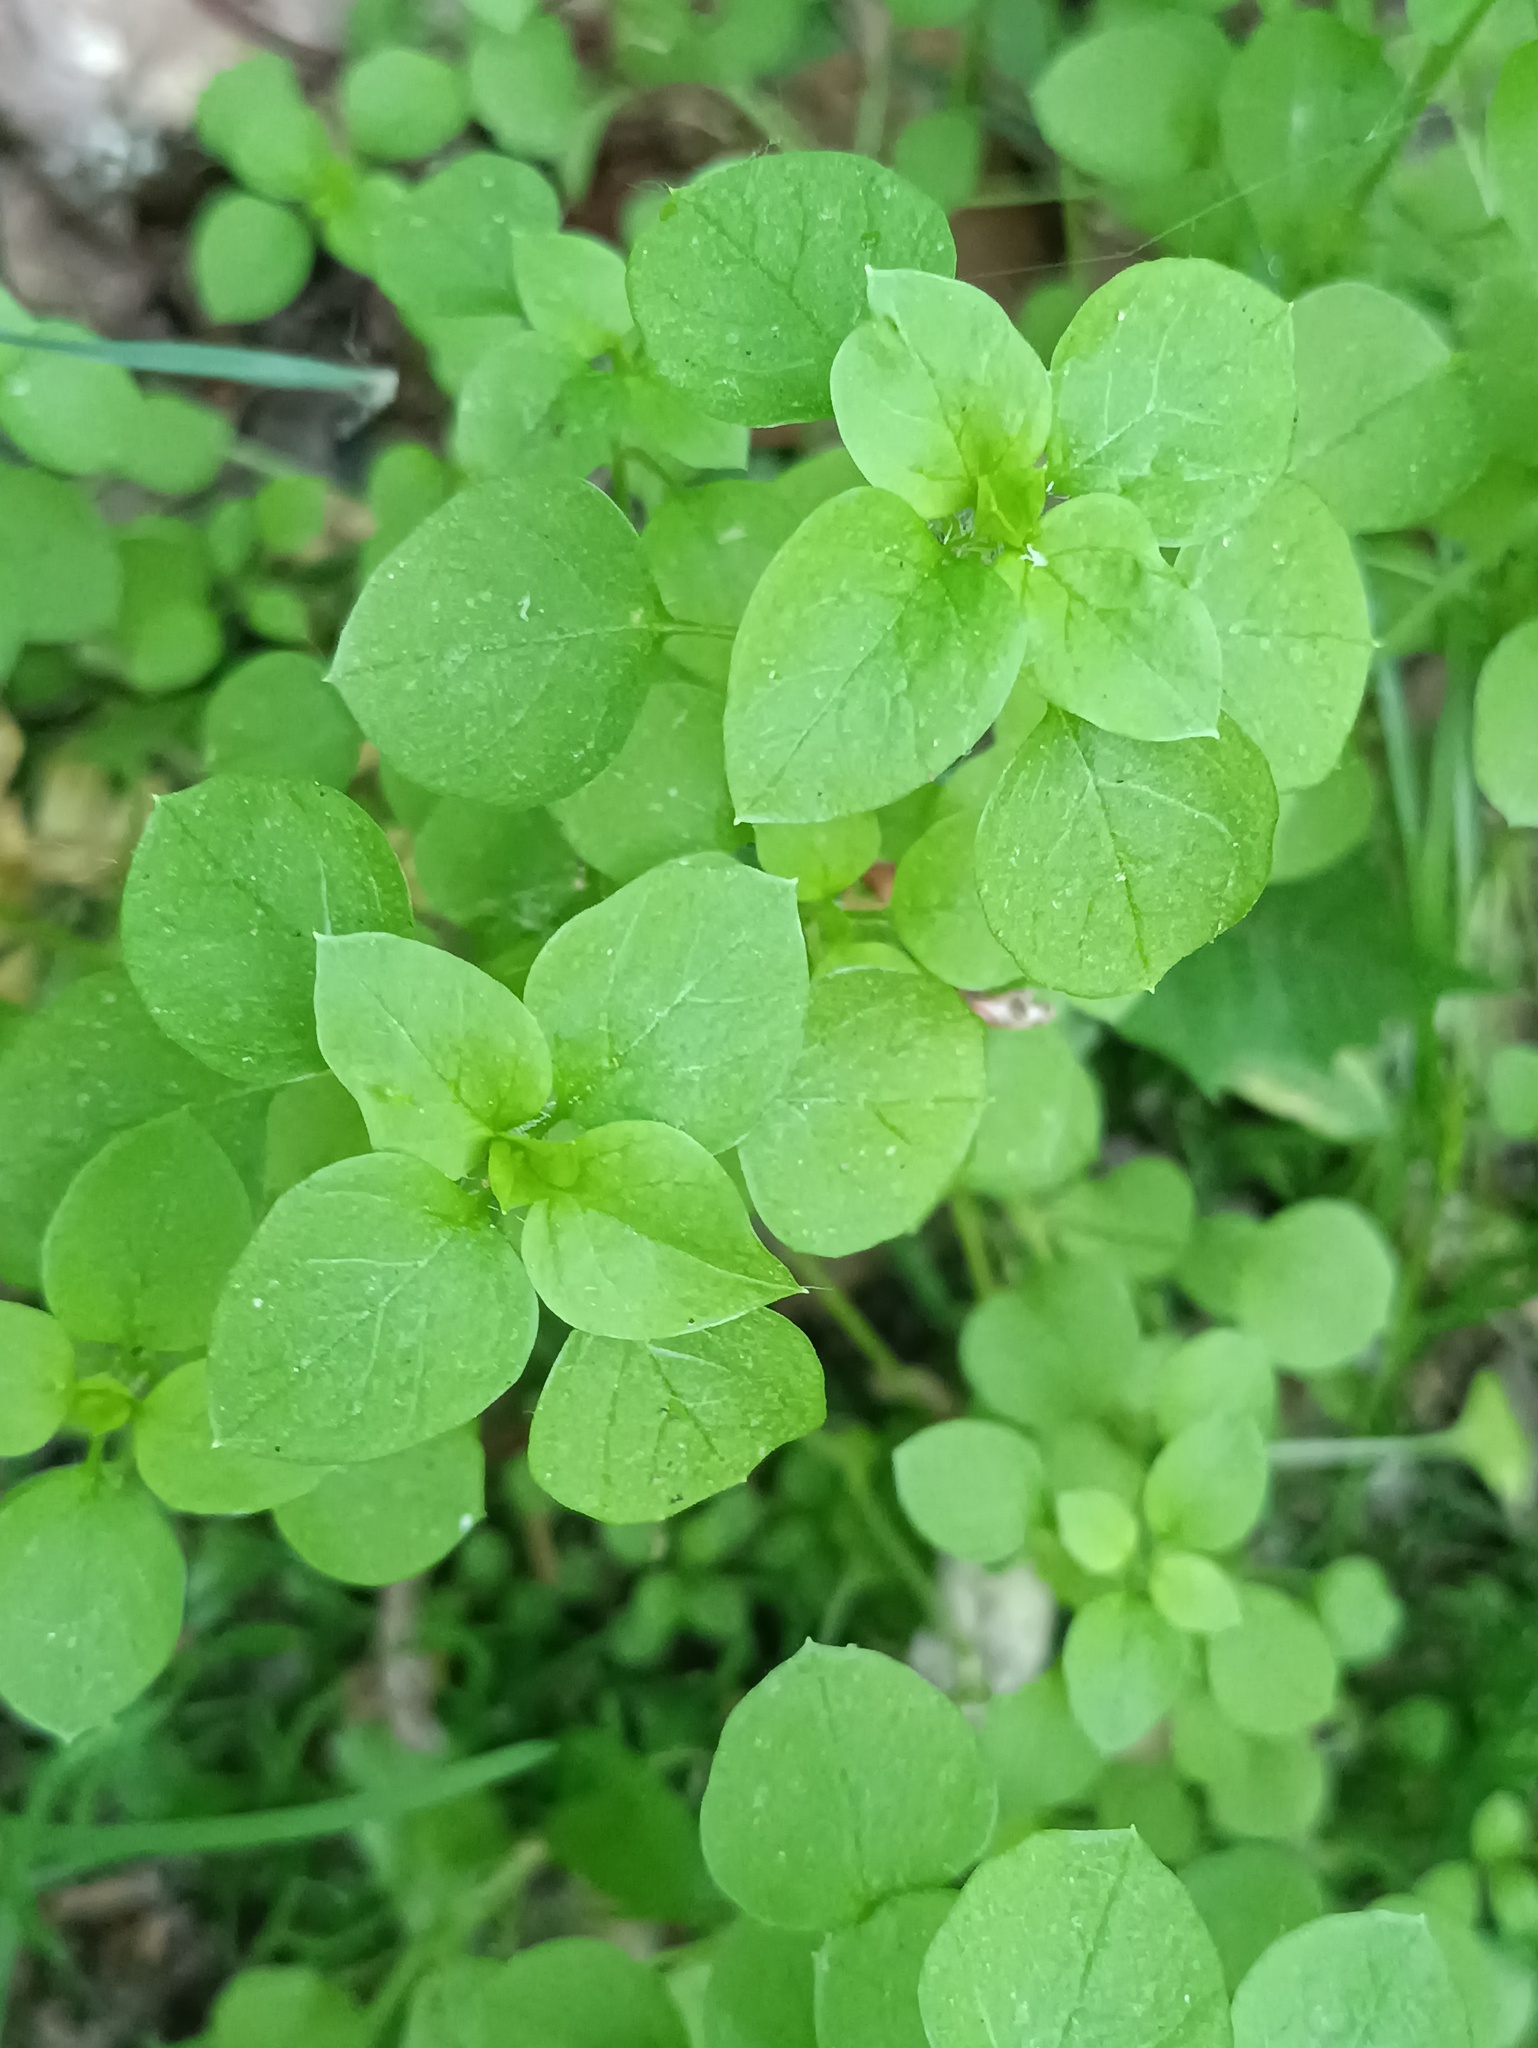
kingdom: Plantae
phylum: Tracheophyta
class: Magnoliopsida
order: Caryophyllales
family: Caryophyllaceae
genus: Stellaria
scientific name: Stellaria media
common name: Common chickweed
